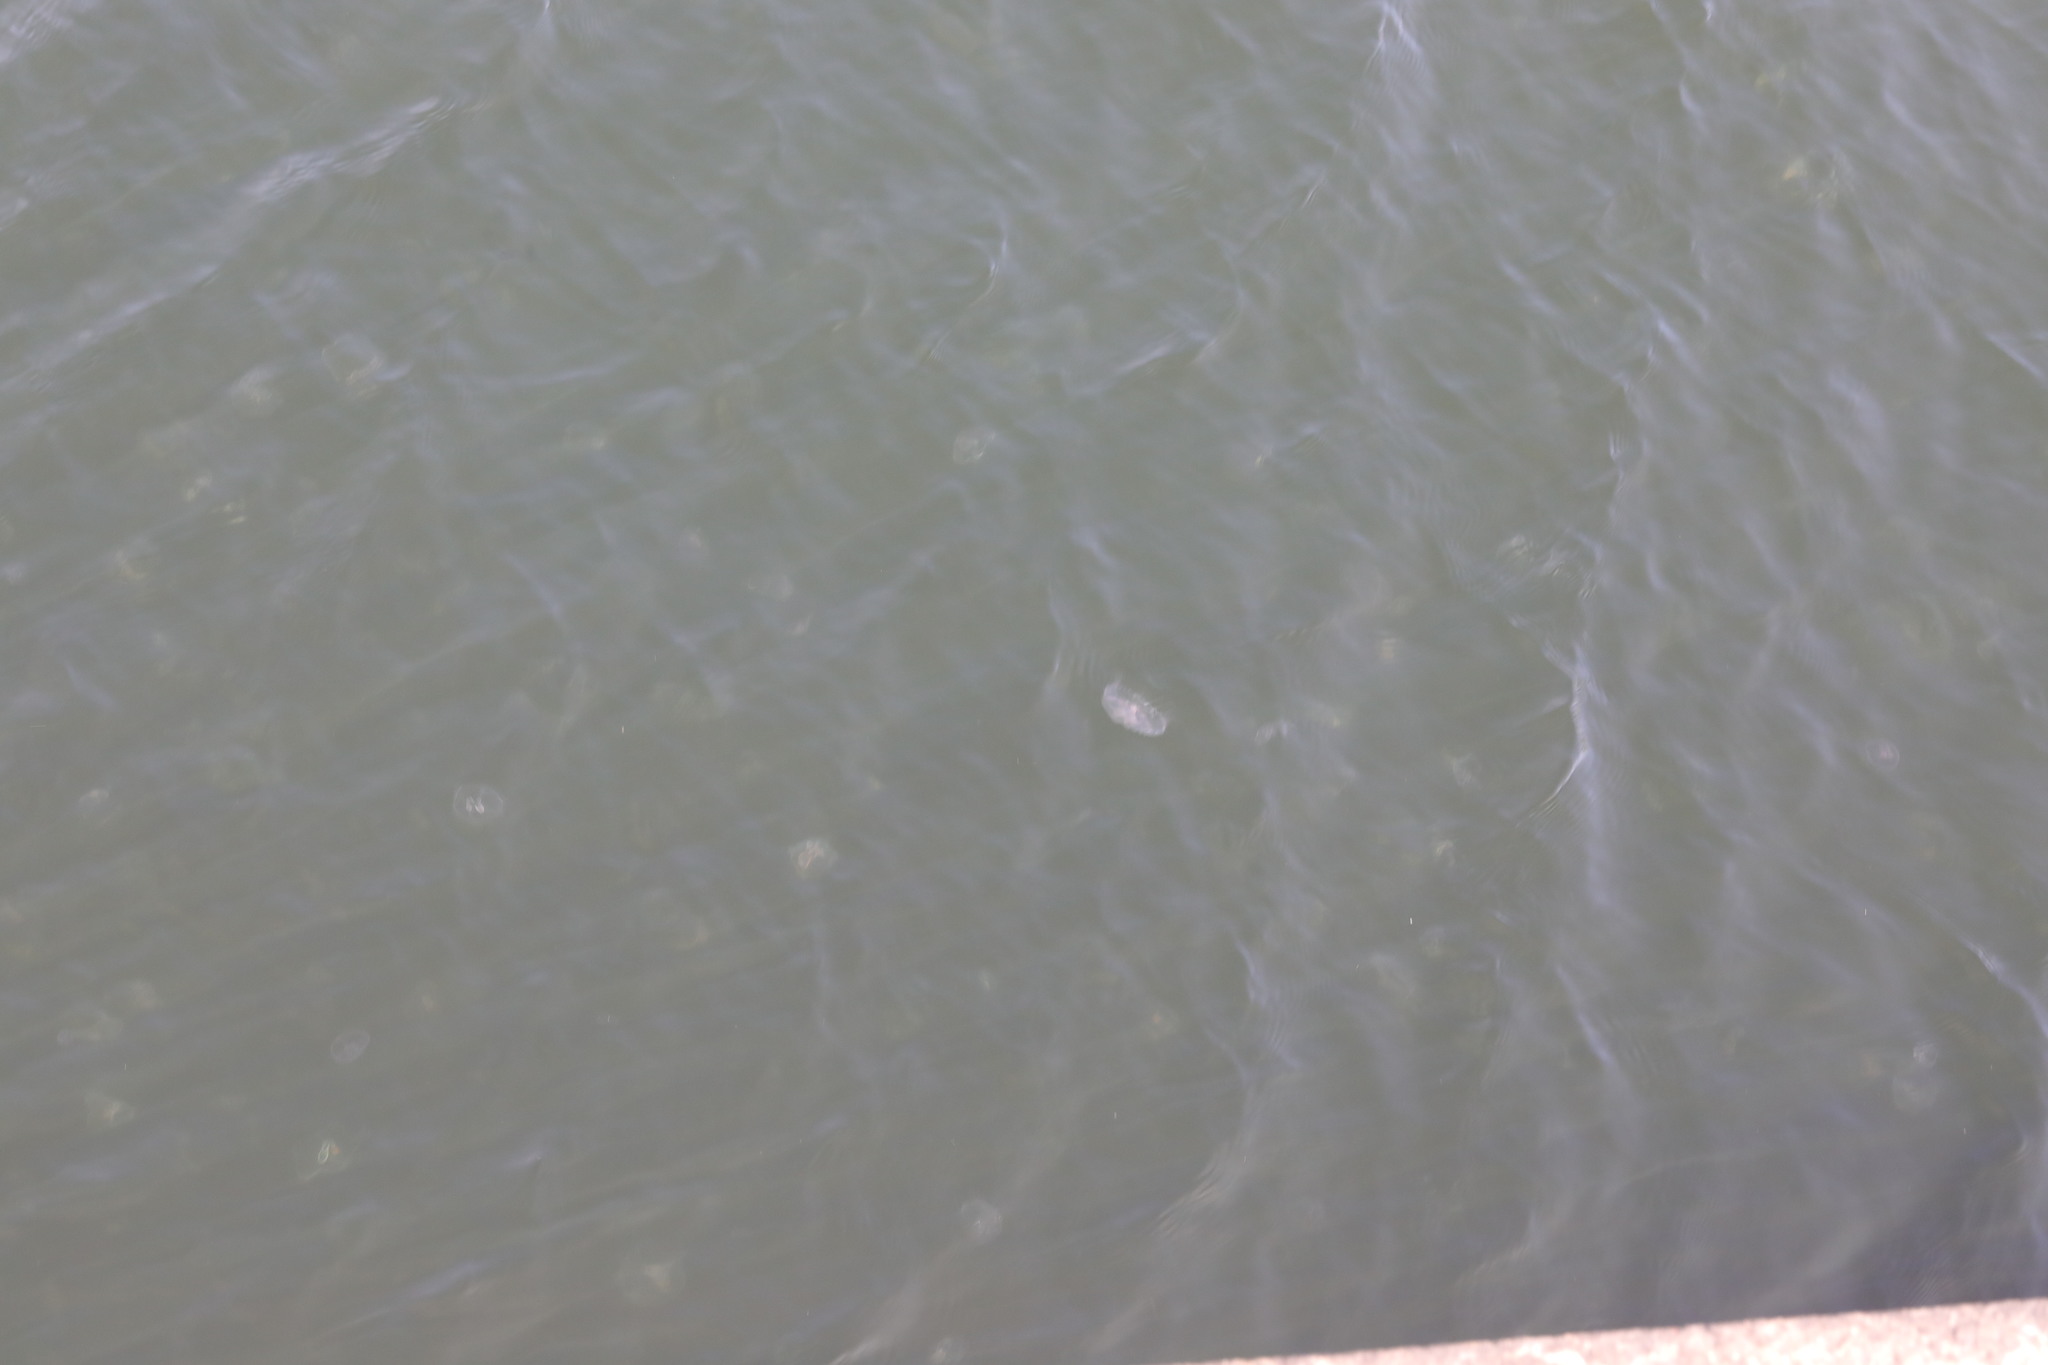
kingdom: Animalia
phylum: Cnidaria
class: Scyphozoa
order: Semaeostomeae
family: Ulmaridae
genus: Aurelia
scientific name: Aurelia aurita
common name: Moon jellyfish
